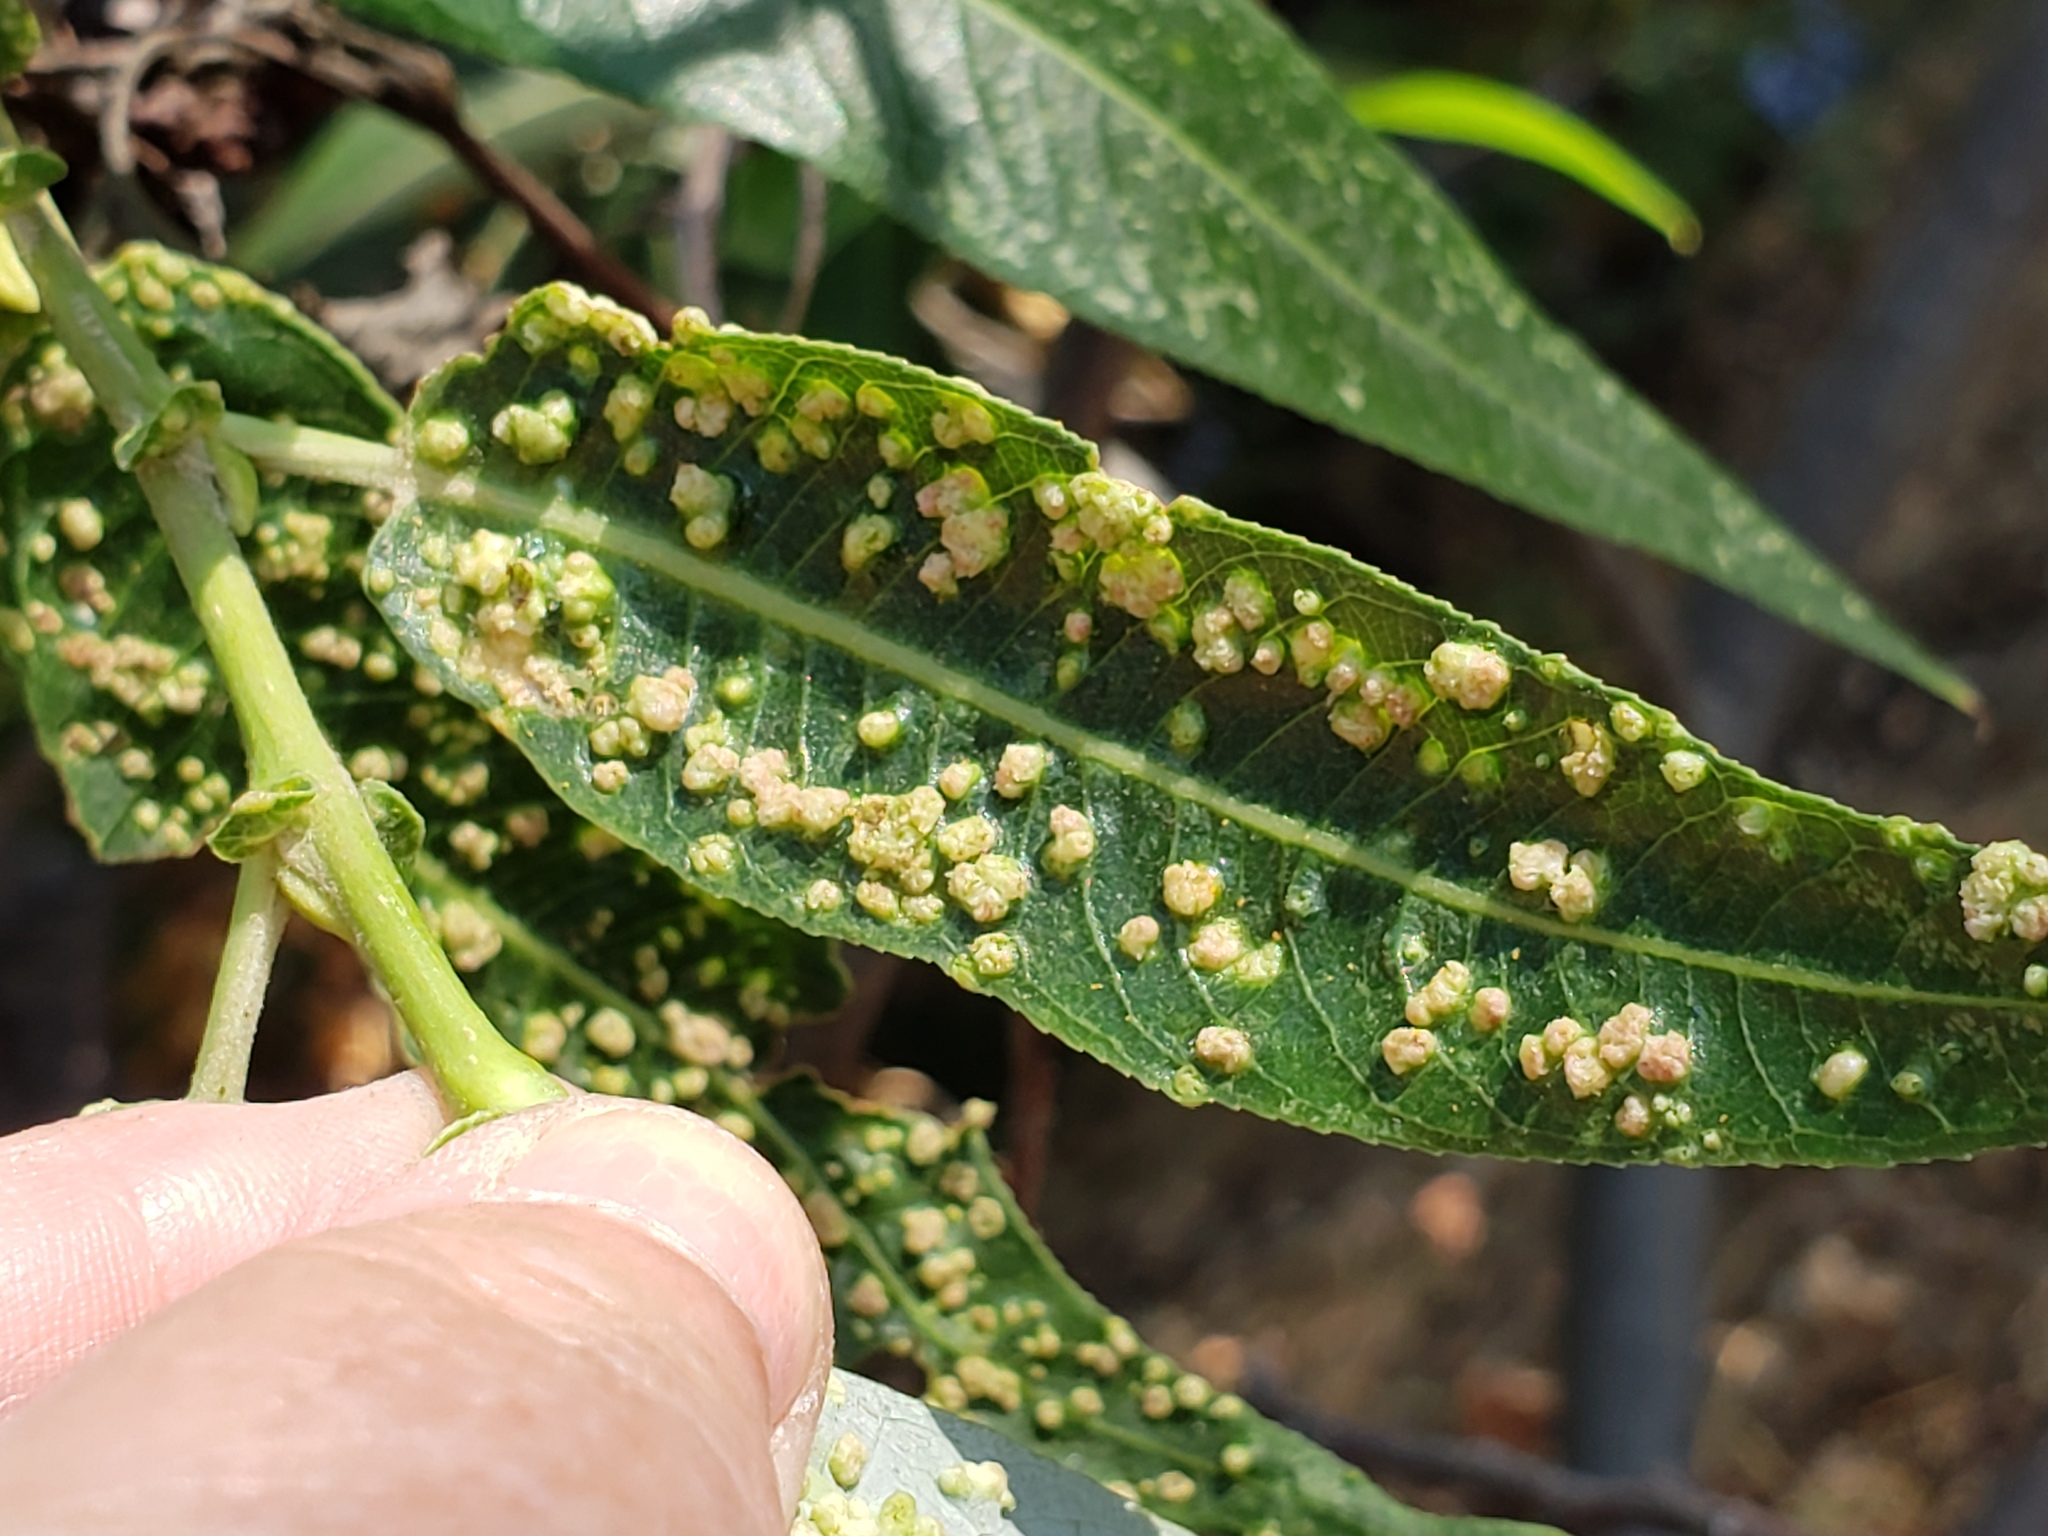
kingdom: Animalia
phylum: Arthropoda
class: Arachnida
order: Trombidiformes
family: Eriophyidae
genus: Aculus
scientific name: Aculus tetanothrix
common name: Willow bead gall mite
